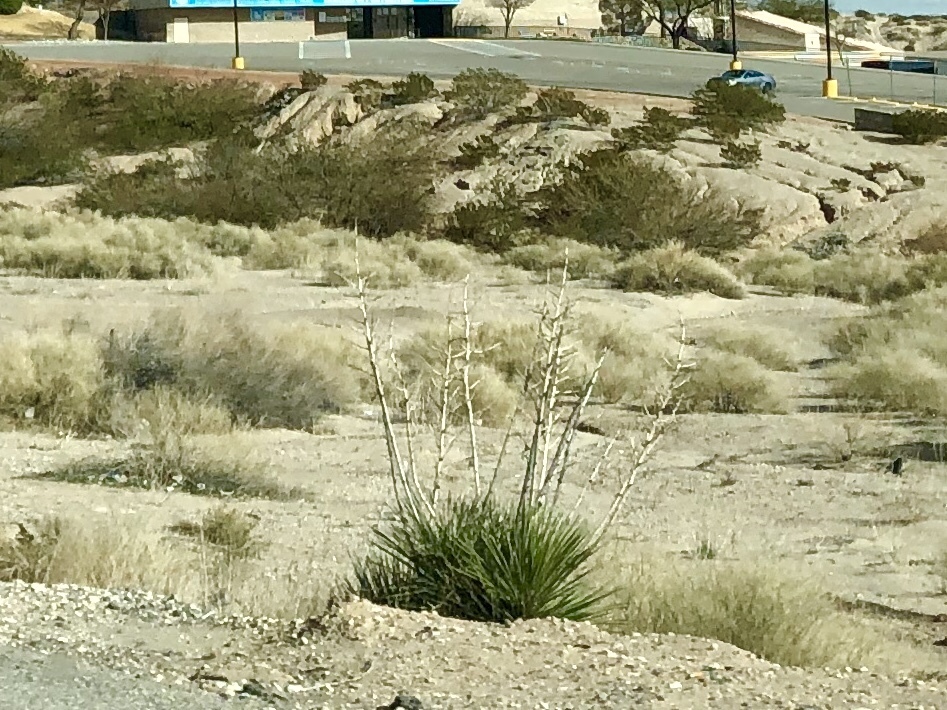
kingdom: Plantae
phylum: Tracheophyta
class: Liliopsida
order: Asparagales
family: Asparagaceae
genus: Yucca
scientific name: Yucca elata
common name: Palmella
